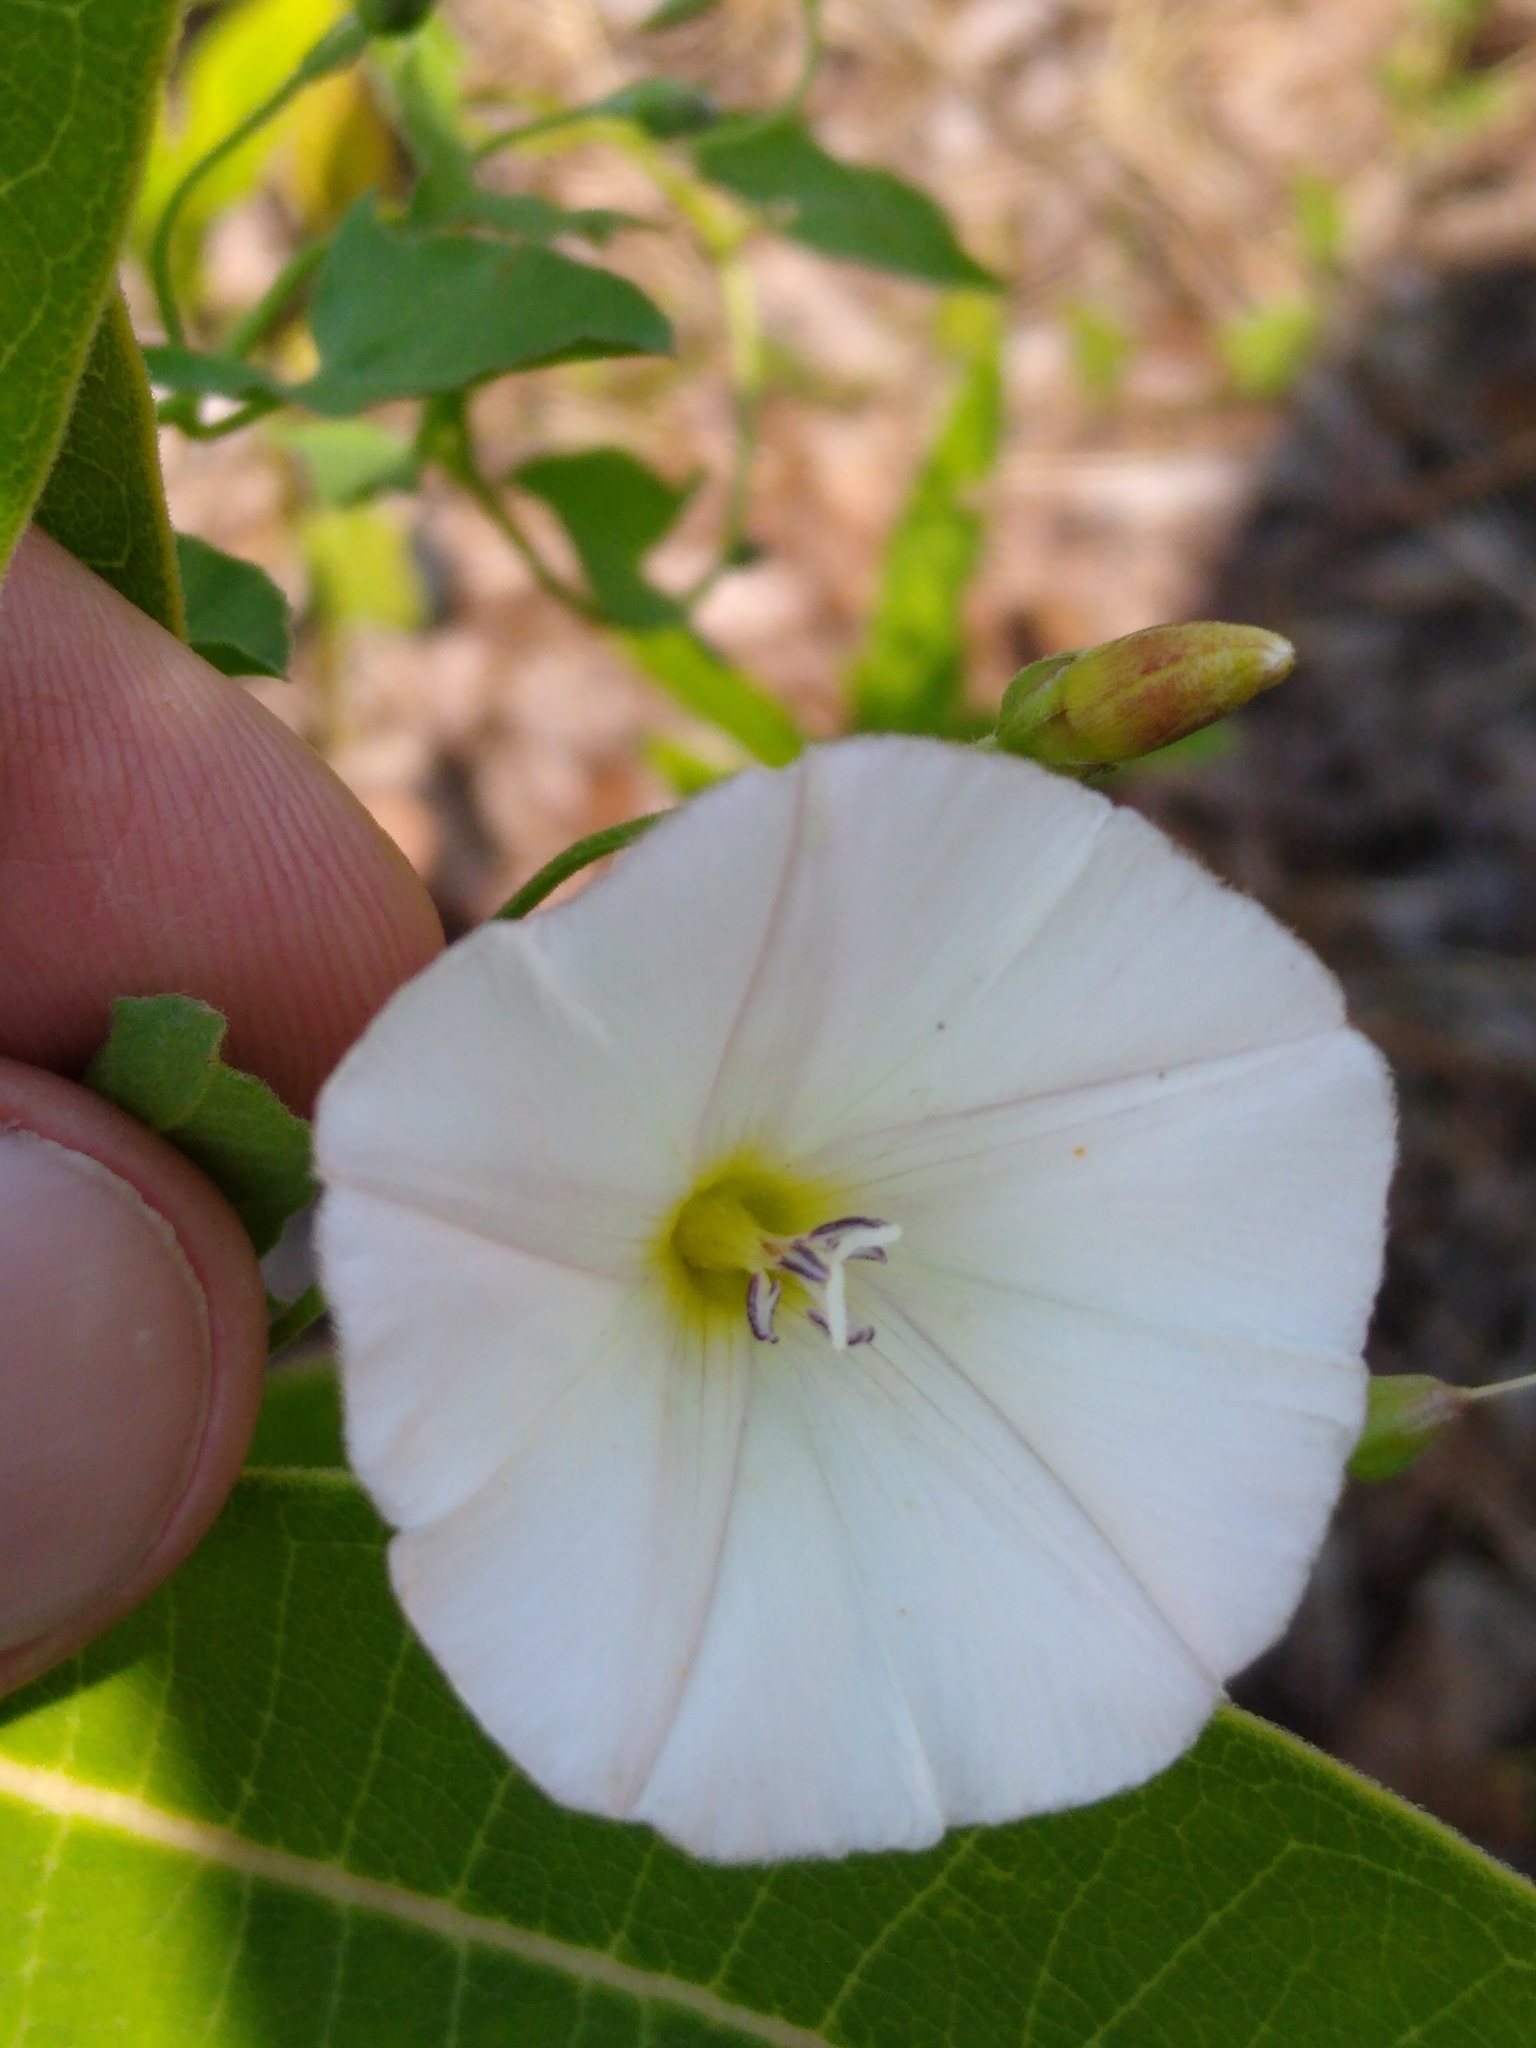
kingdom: Plantae
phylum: Tracheophyta
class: Magnoliopsida
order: Solanales
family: Convolvulaceae
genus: Convolvulus
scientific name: Convolvulus arvensis
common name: Field bindweed
